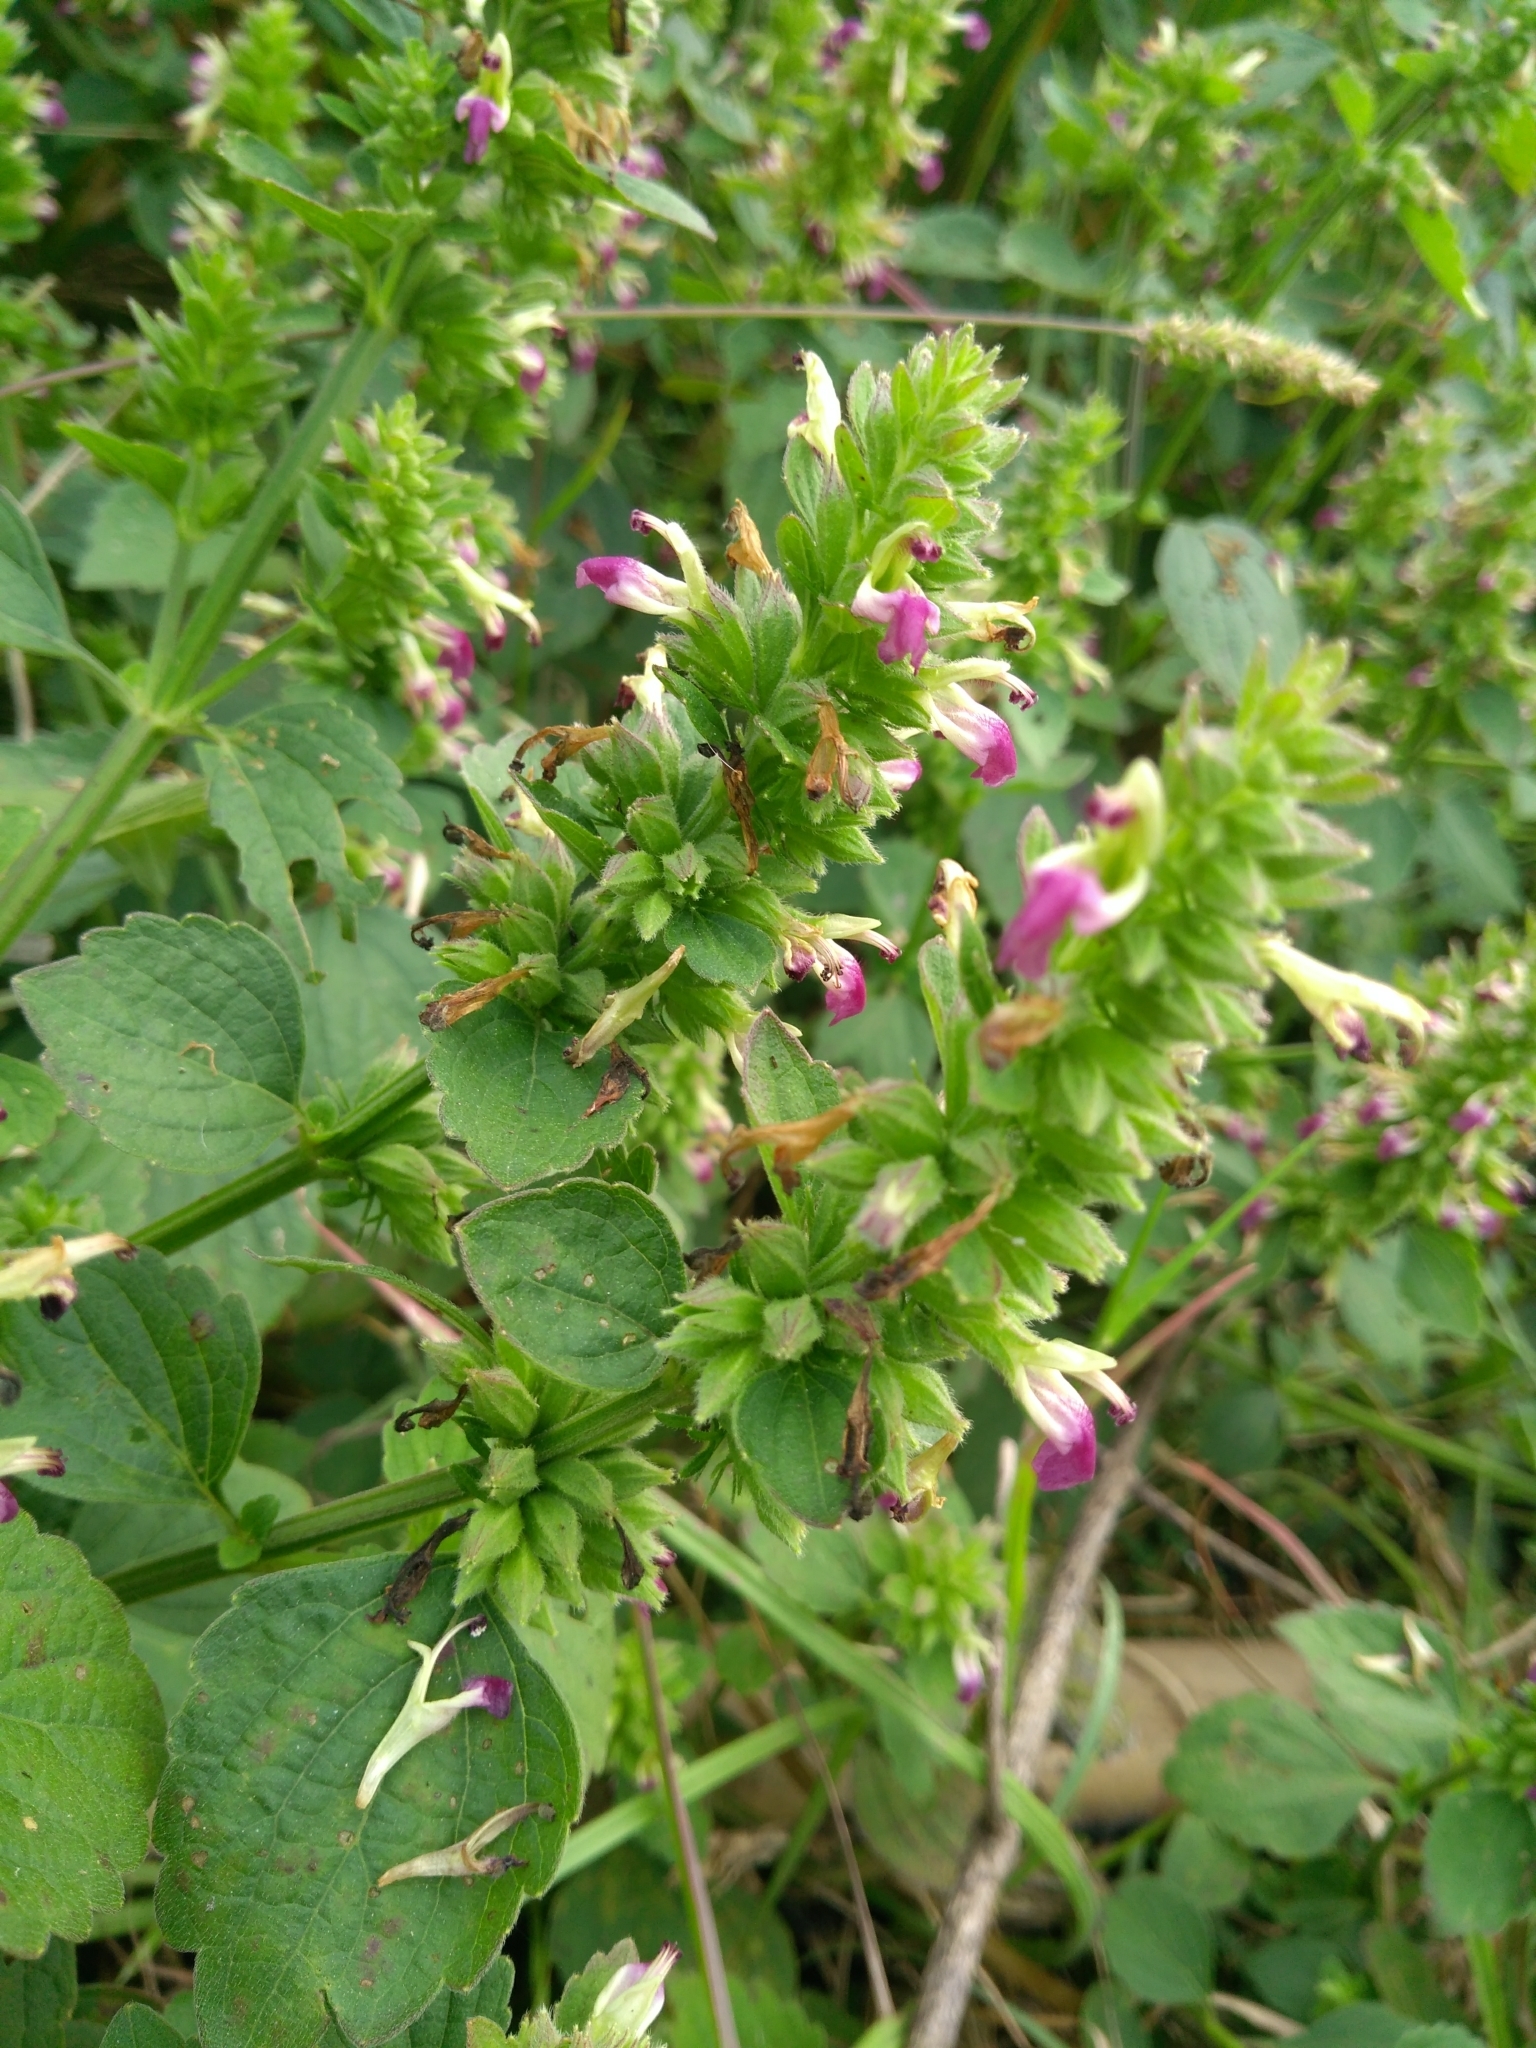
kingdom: Plantae
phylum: Tracheophyta
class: Magnoliopsida
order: Lamiales
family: Lamiaceae
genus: Anisomeles
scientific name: Anisomeles indica
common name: Catmint
